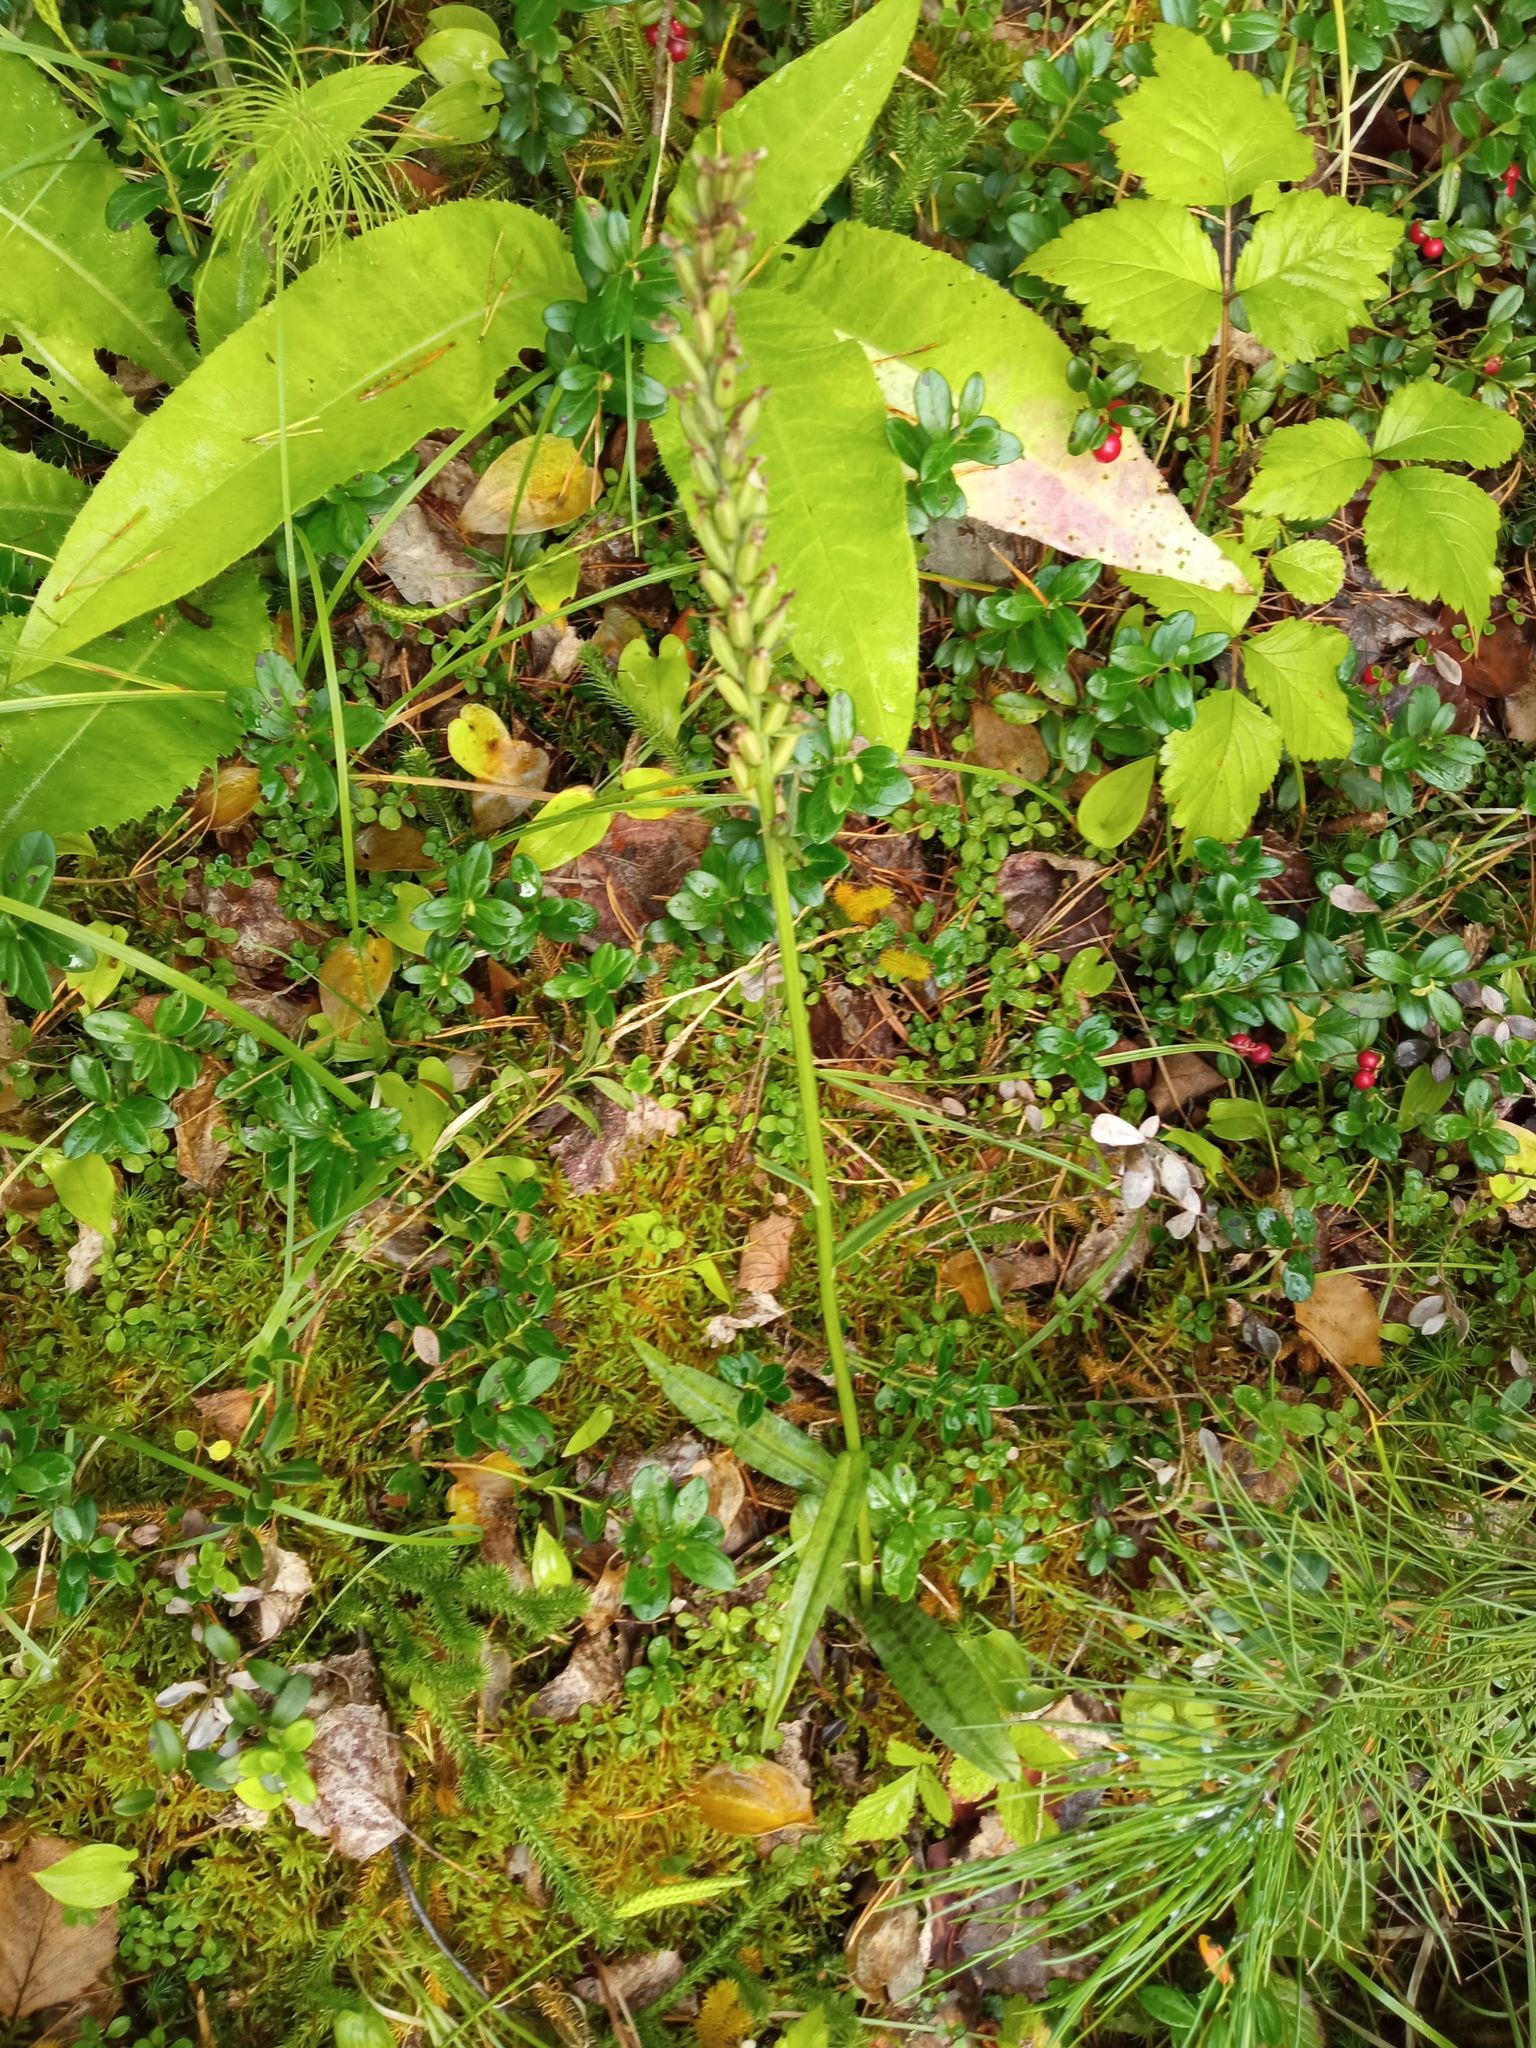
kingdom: Plantae
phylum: Tracheophyta
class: Liliopsida
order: Asparagales
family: Orchidaceae
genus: Dactylorhiza
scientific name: Dactylorhiza maculata
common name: Heath spotted-orchid
